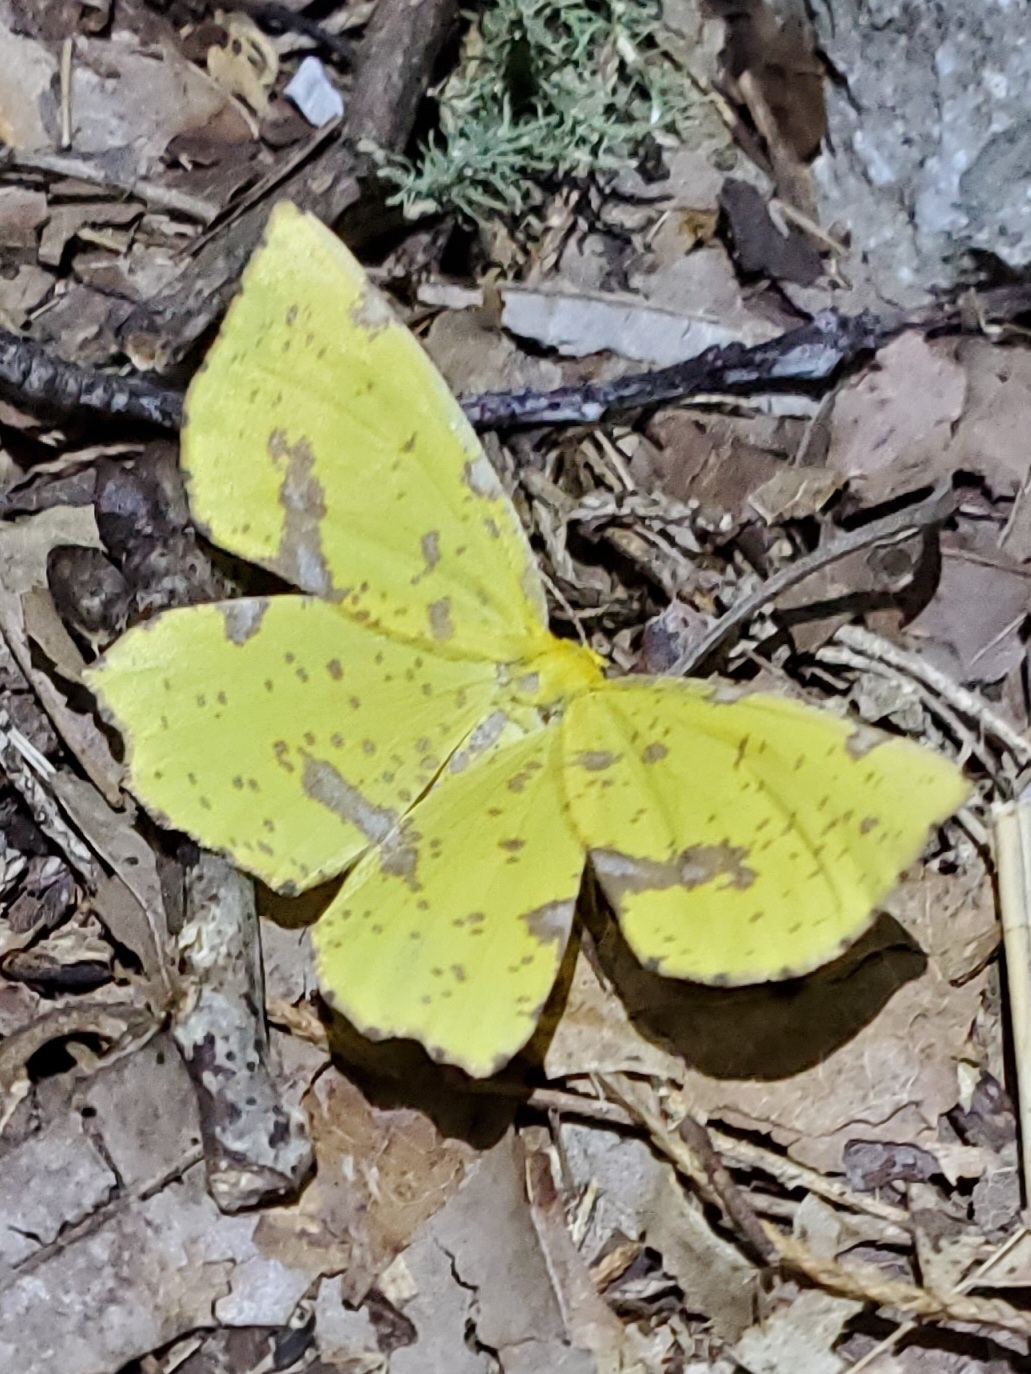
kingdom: Animalia
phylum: Arthropoda
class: Insecta
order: Lepidoptera
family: Geometridae
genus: Xanthotype
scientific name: Xanthotype
